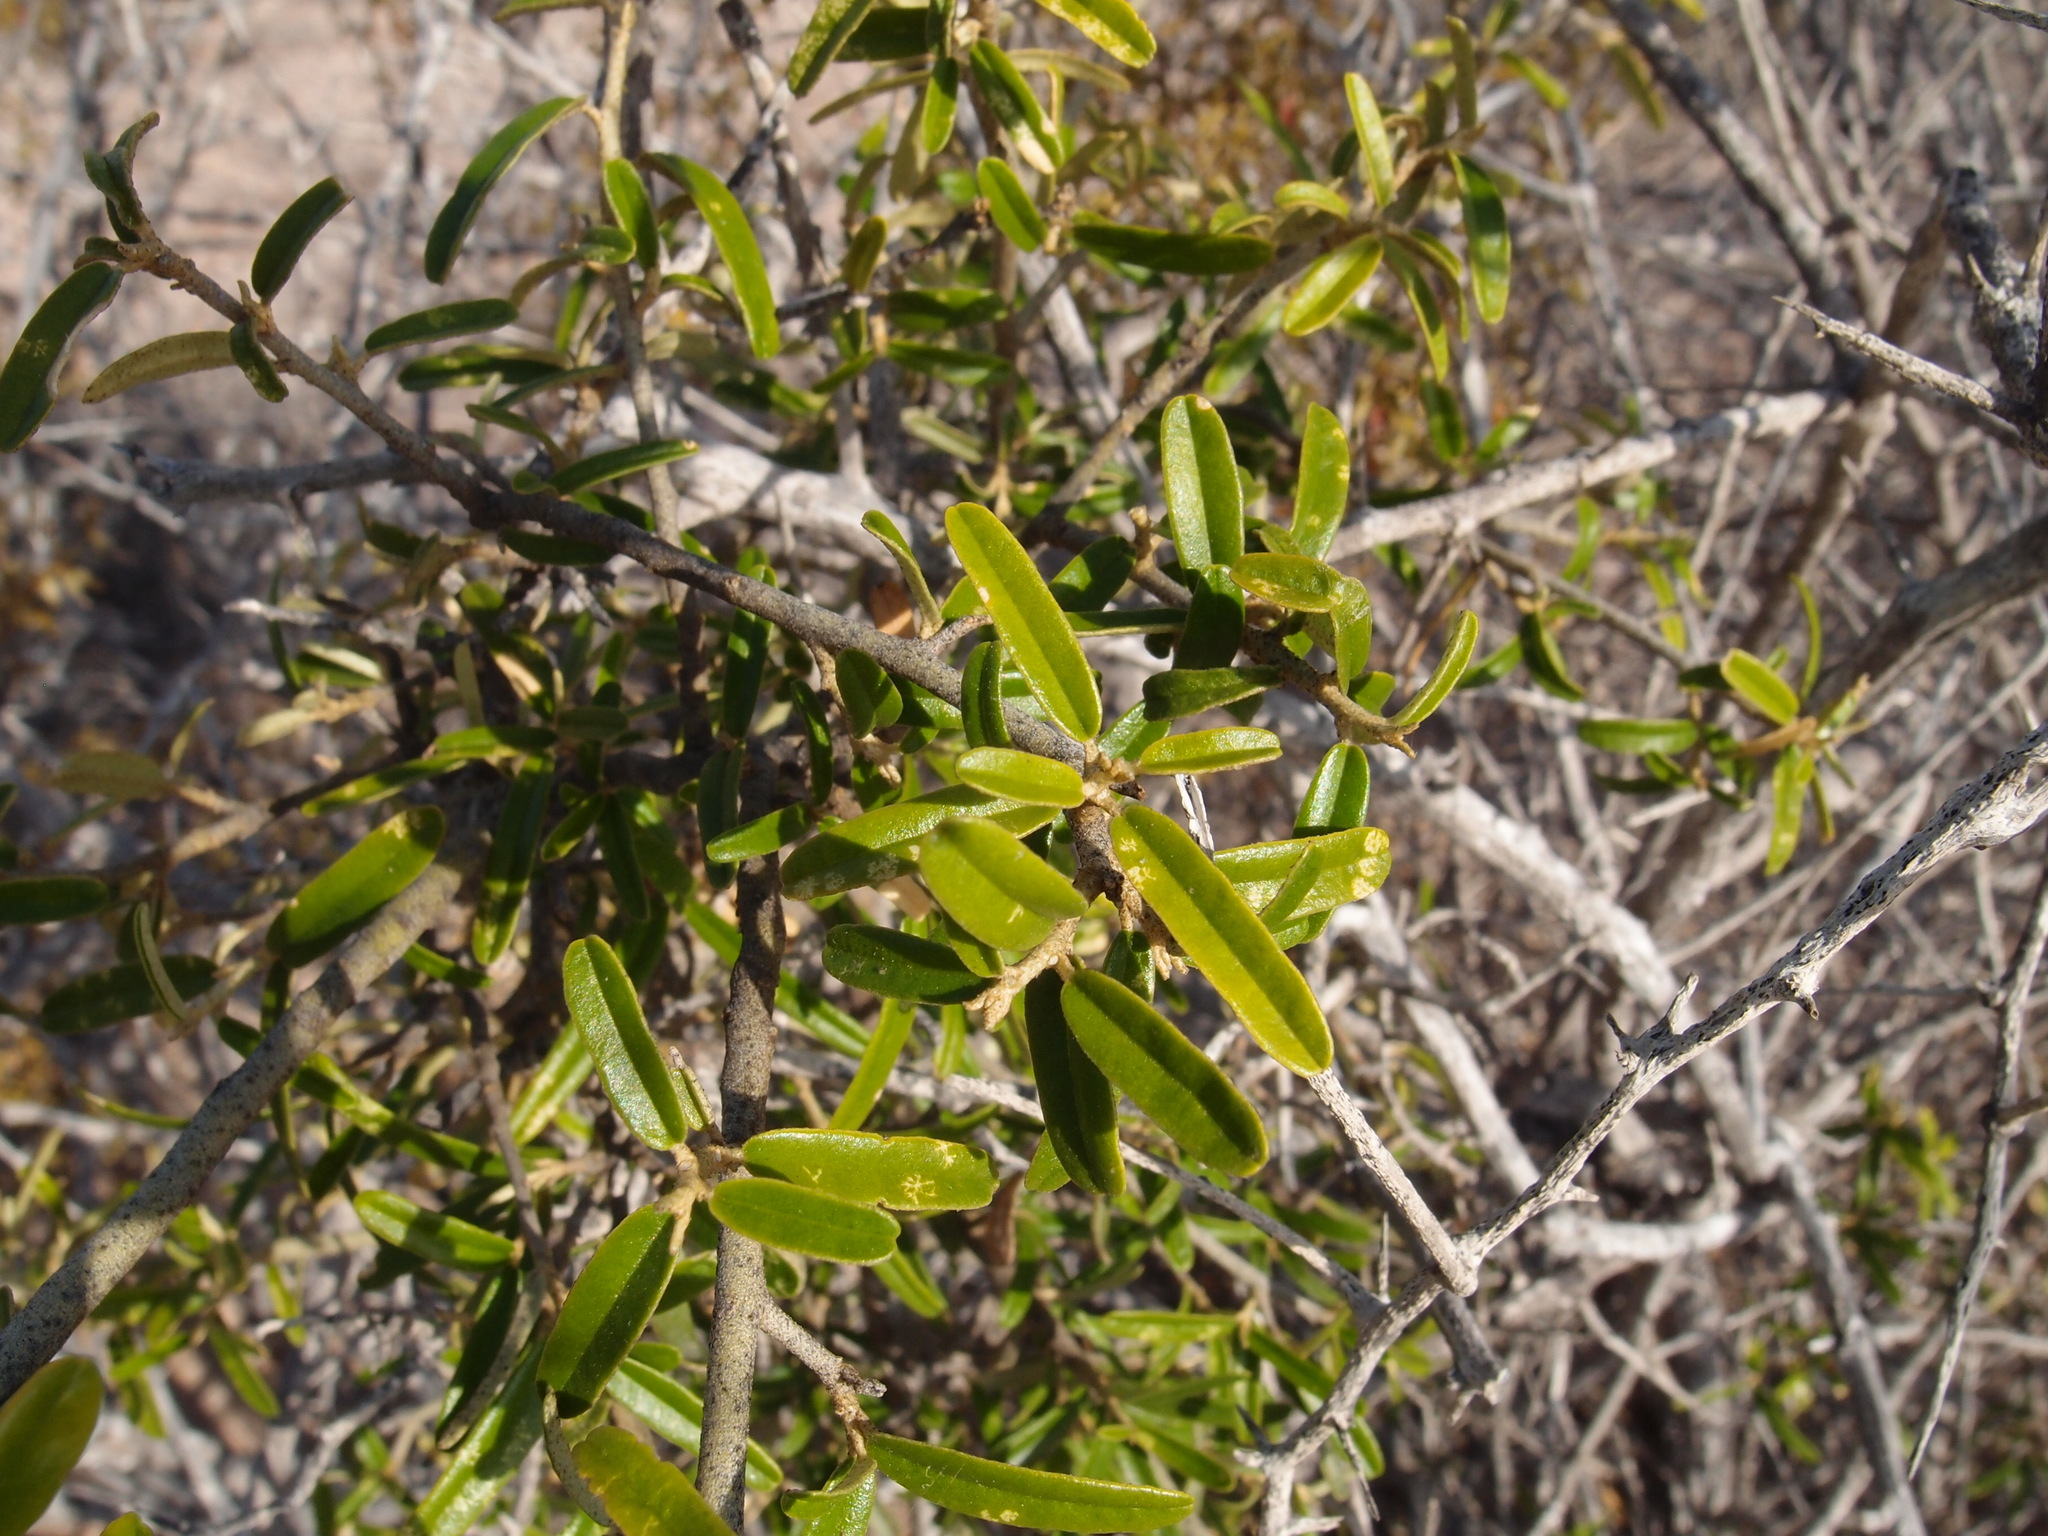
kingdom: Plantae
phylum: Tracheophyta
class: Magnoliopsida
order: Brassicales
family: Capparaceae
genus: Atamisquea
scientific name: Atamisquea emarginata
